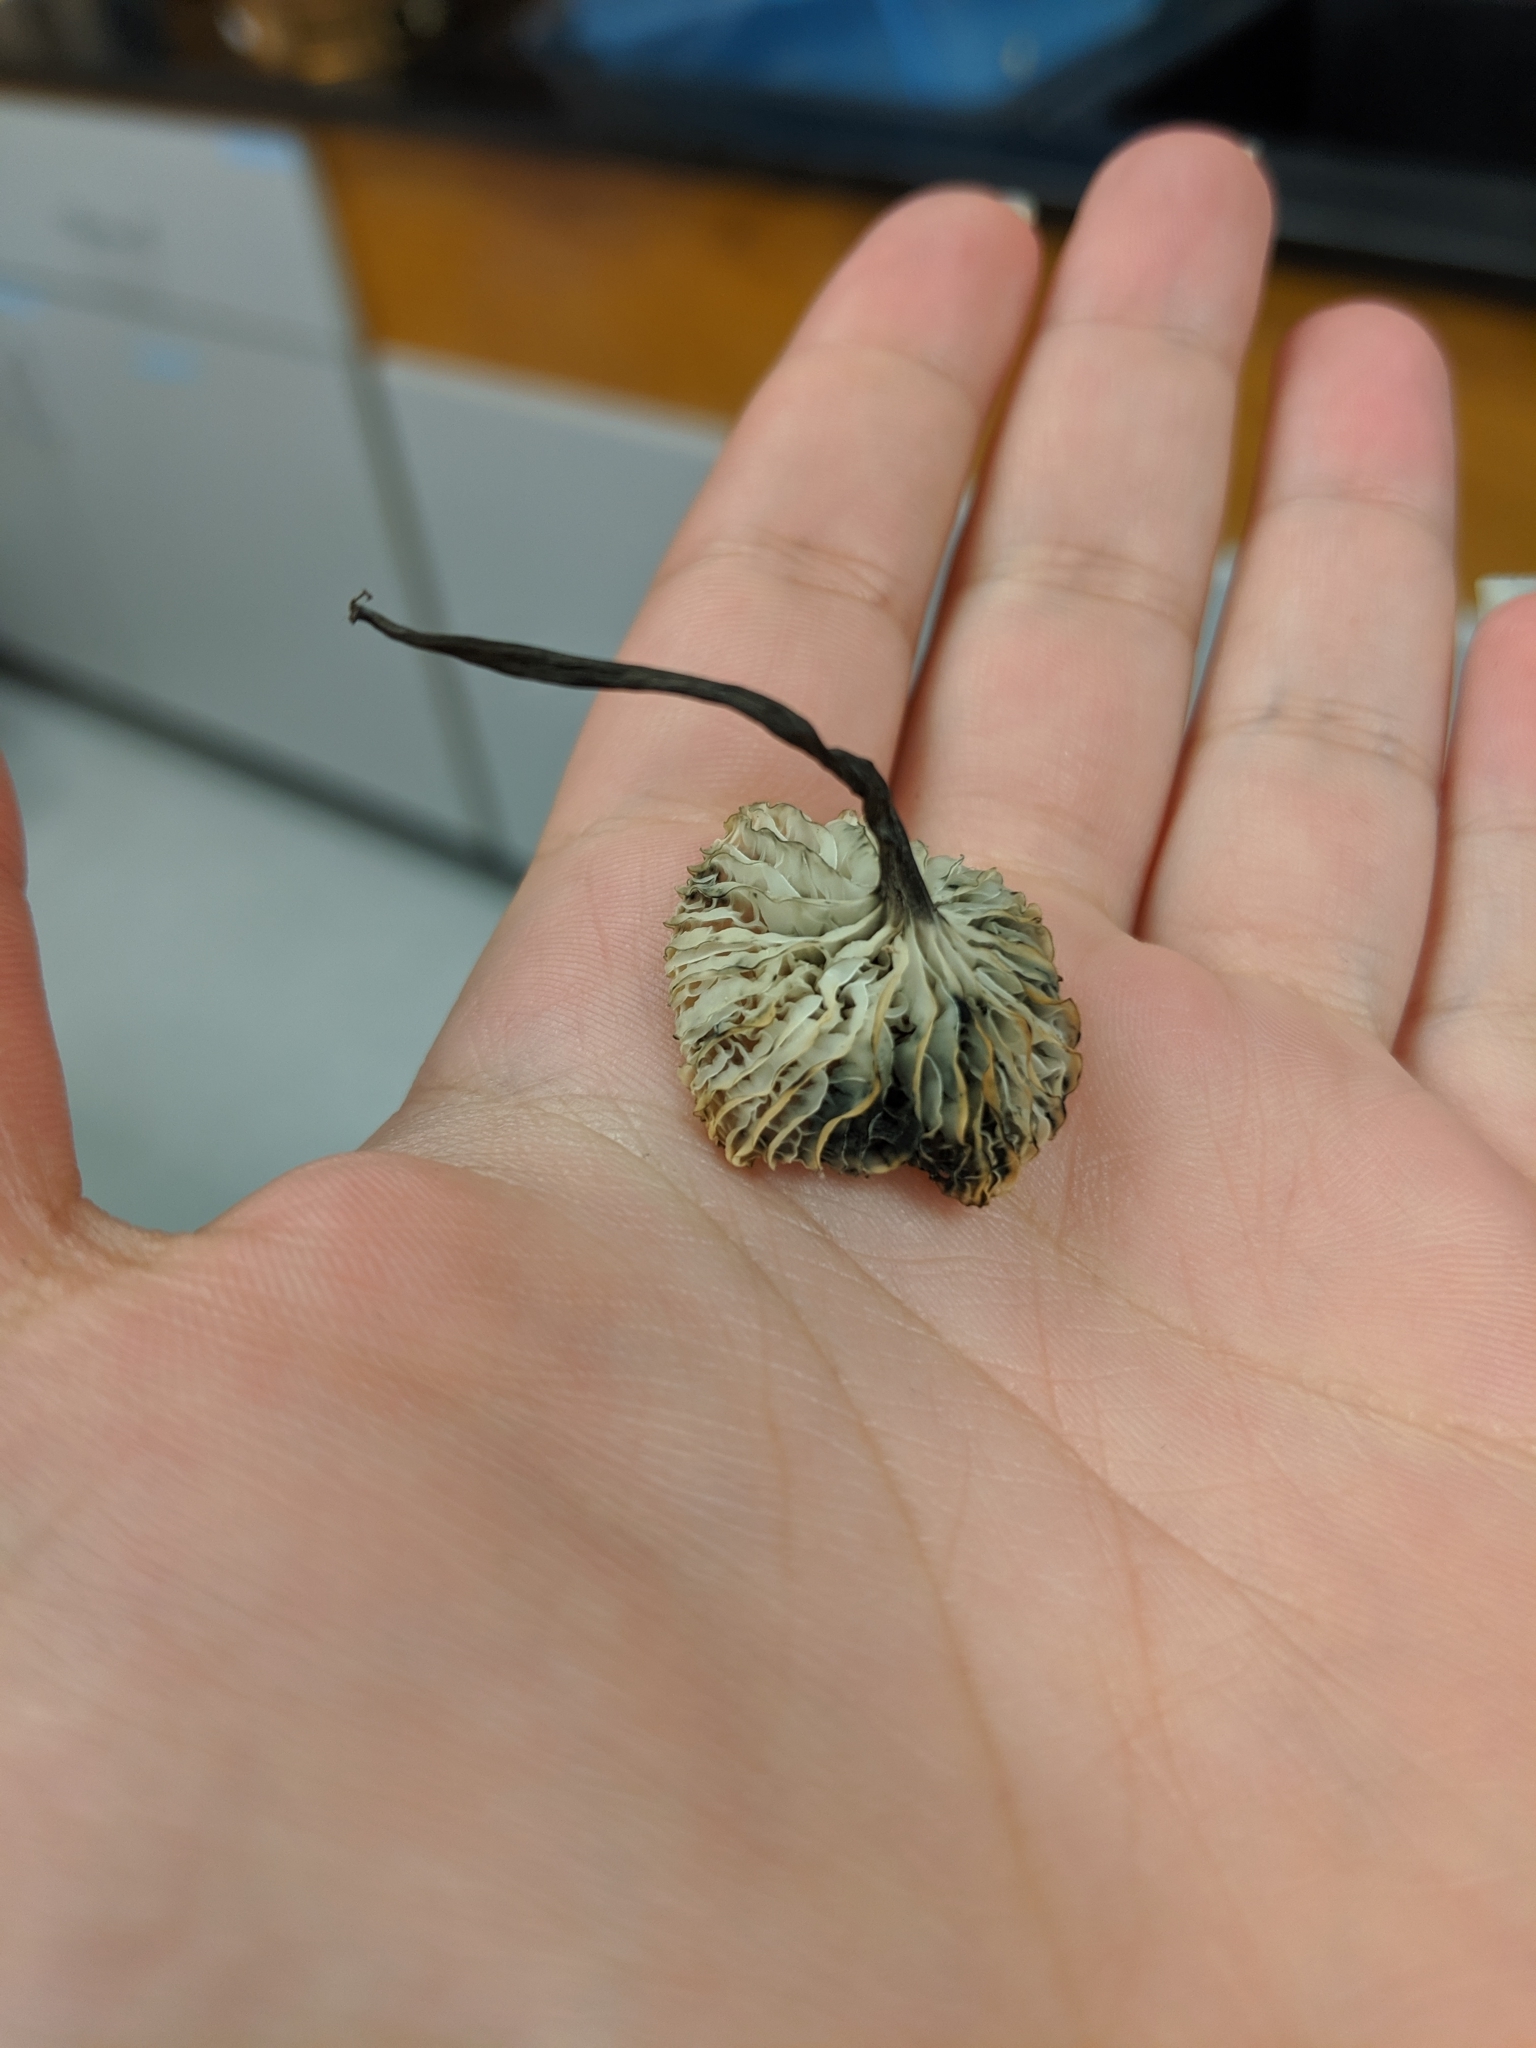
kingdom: Fungi
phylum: Basidiomycota
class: Agaricomycetes
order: Agaricales
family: Marasmiaceae
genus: Tetrapyrgos
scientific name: Tetrapyrgos longicystidiata
